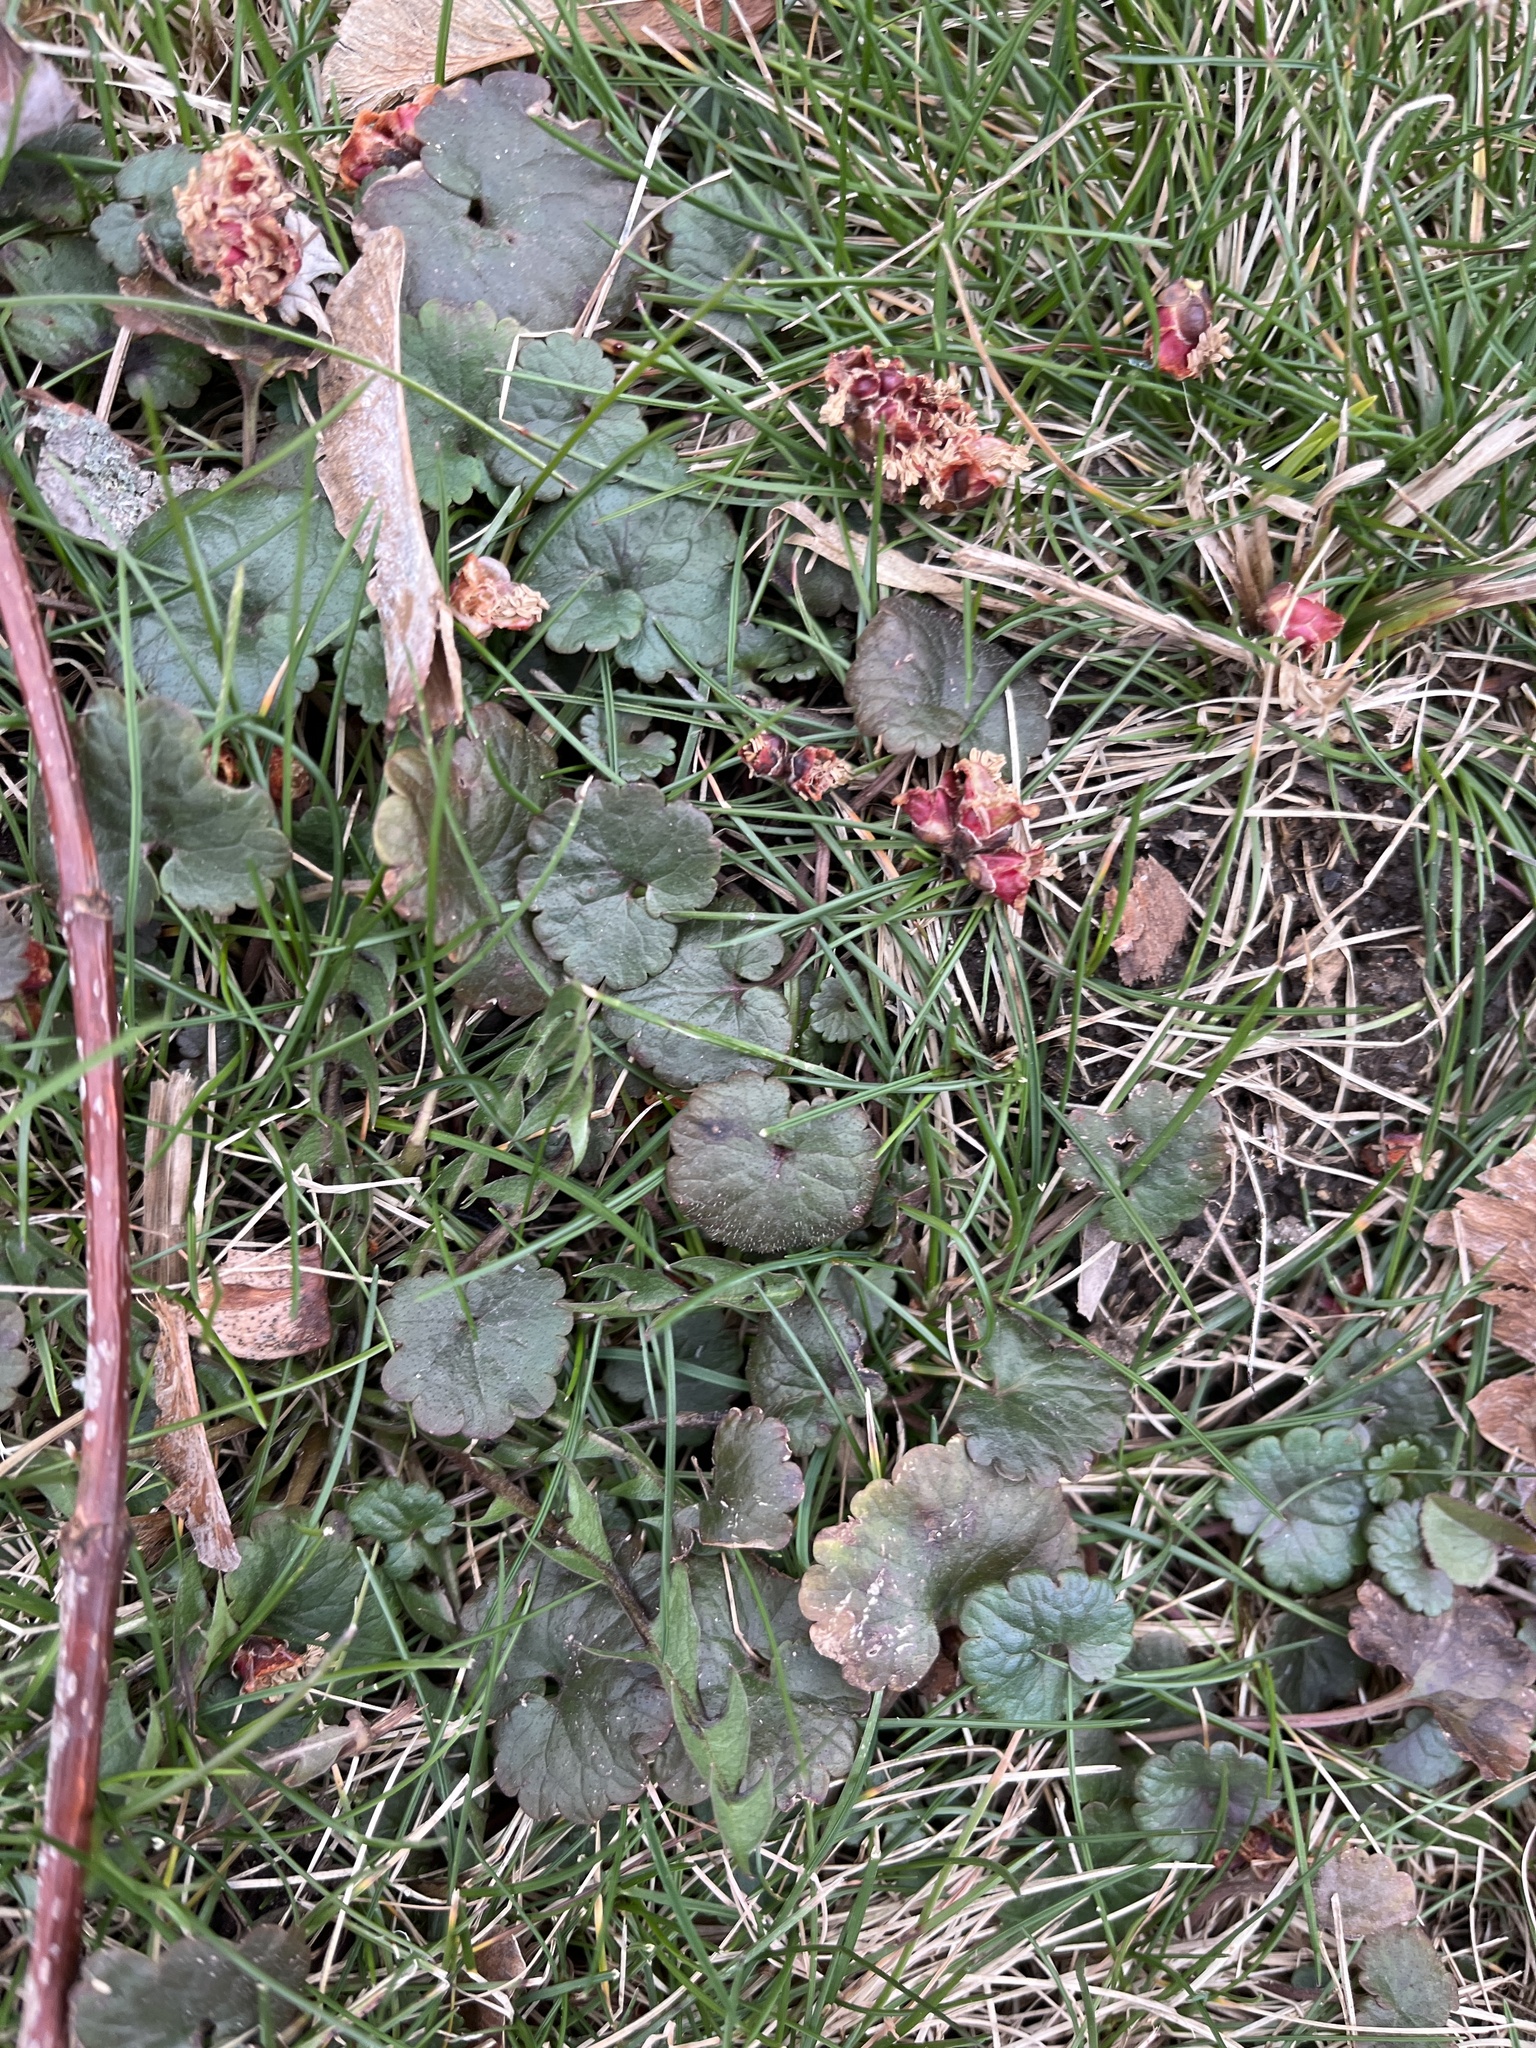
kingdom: Plantae
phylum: Tracheophyta
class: Magnoliopsida
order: Lamiales
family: Lamiaceae
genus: Glechoma
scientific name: Glechoma hederacea
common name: Ground ivy
